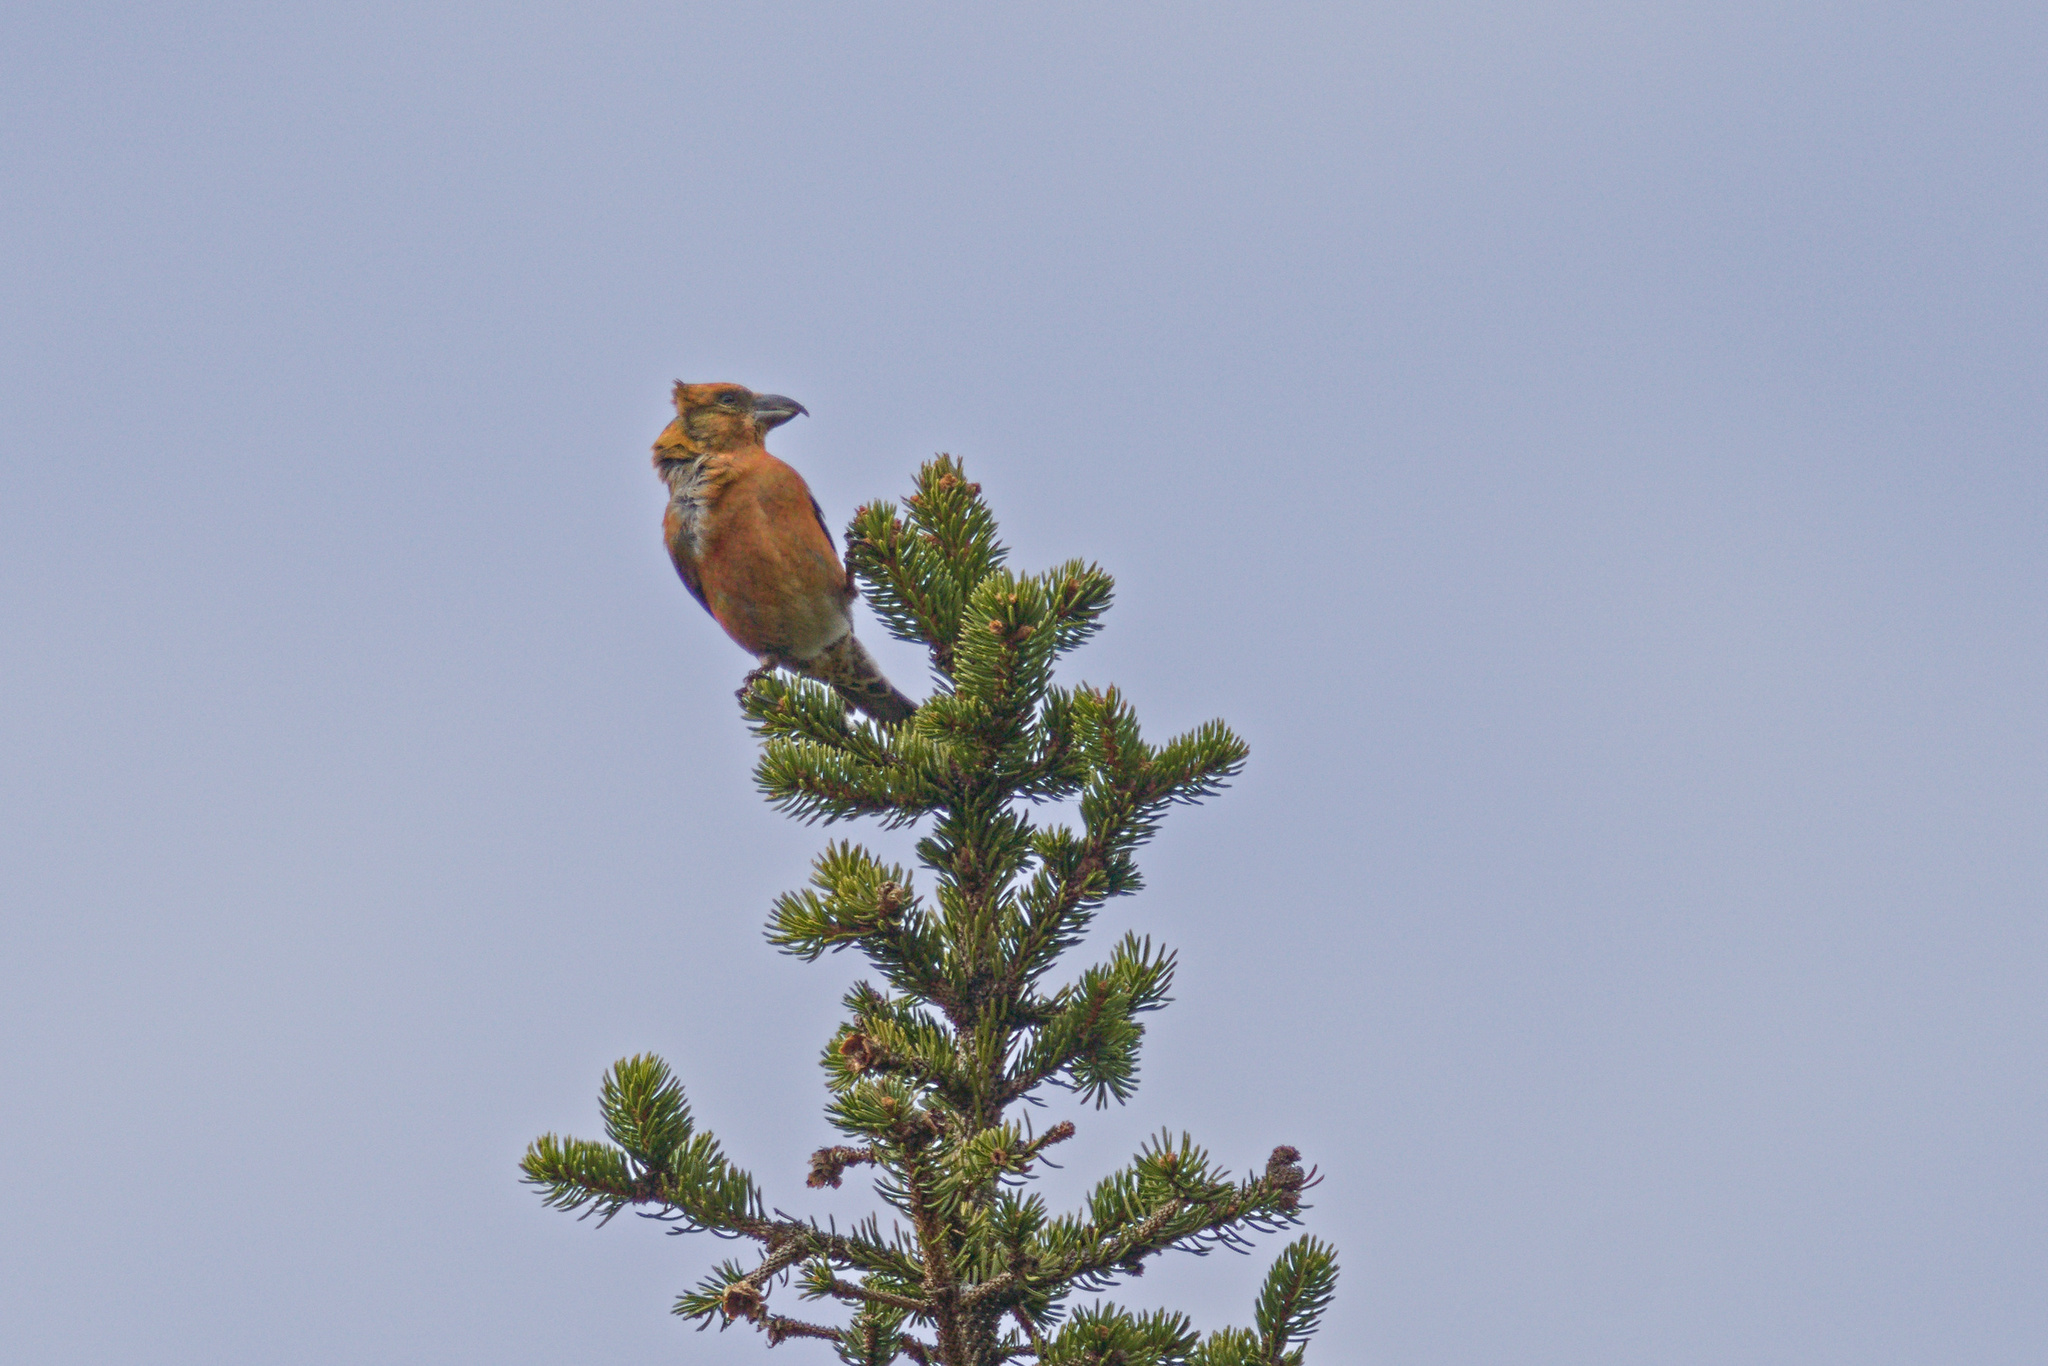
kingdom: Animalia
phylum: Chordata
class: Aves
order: Passeriformes
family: Fringillidae
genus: Loxia
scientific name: Loxia curvirostra
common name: Red crossbill
